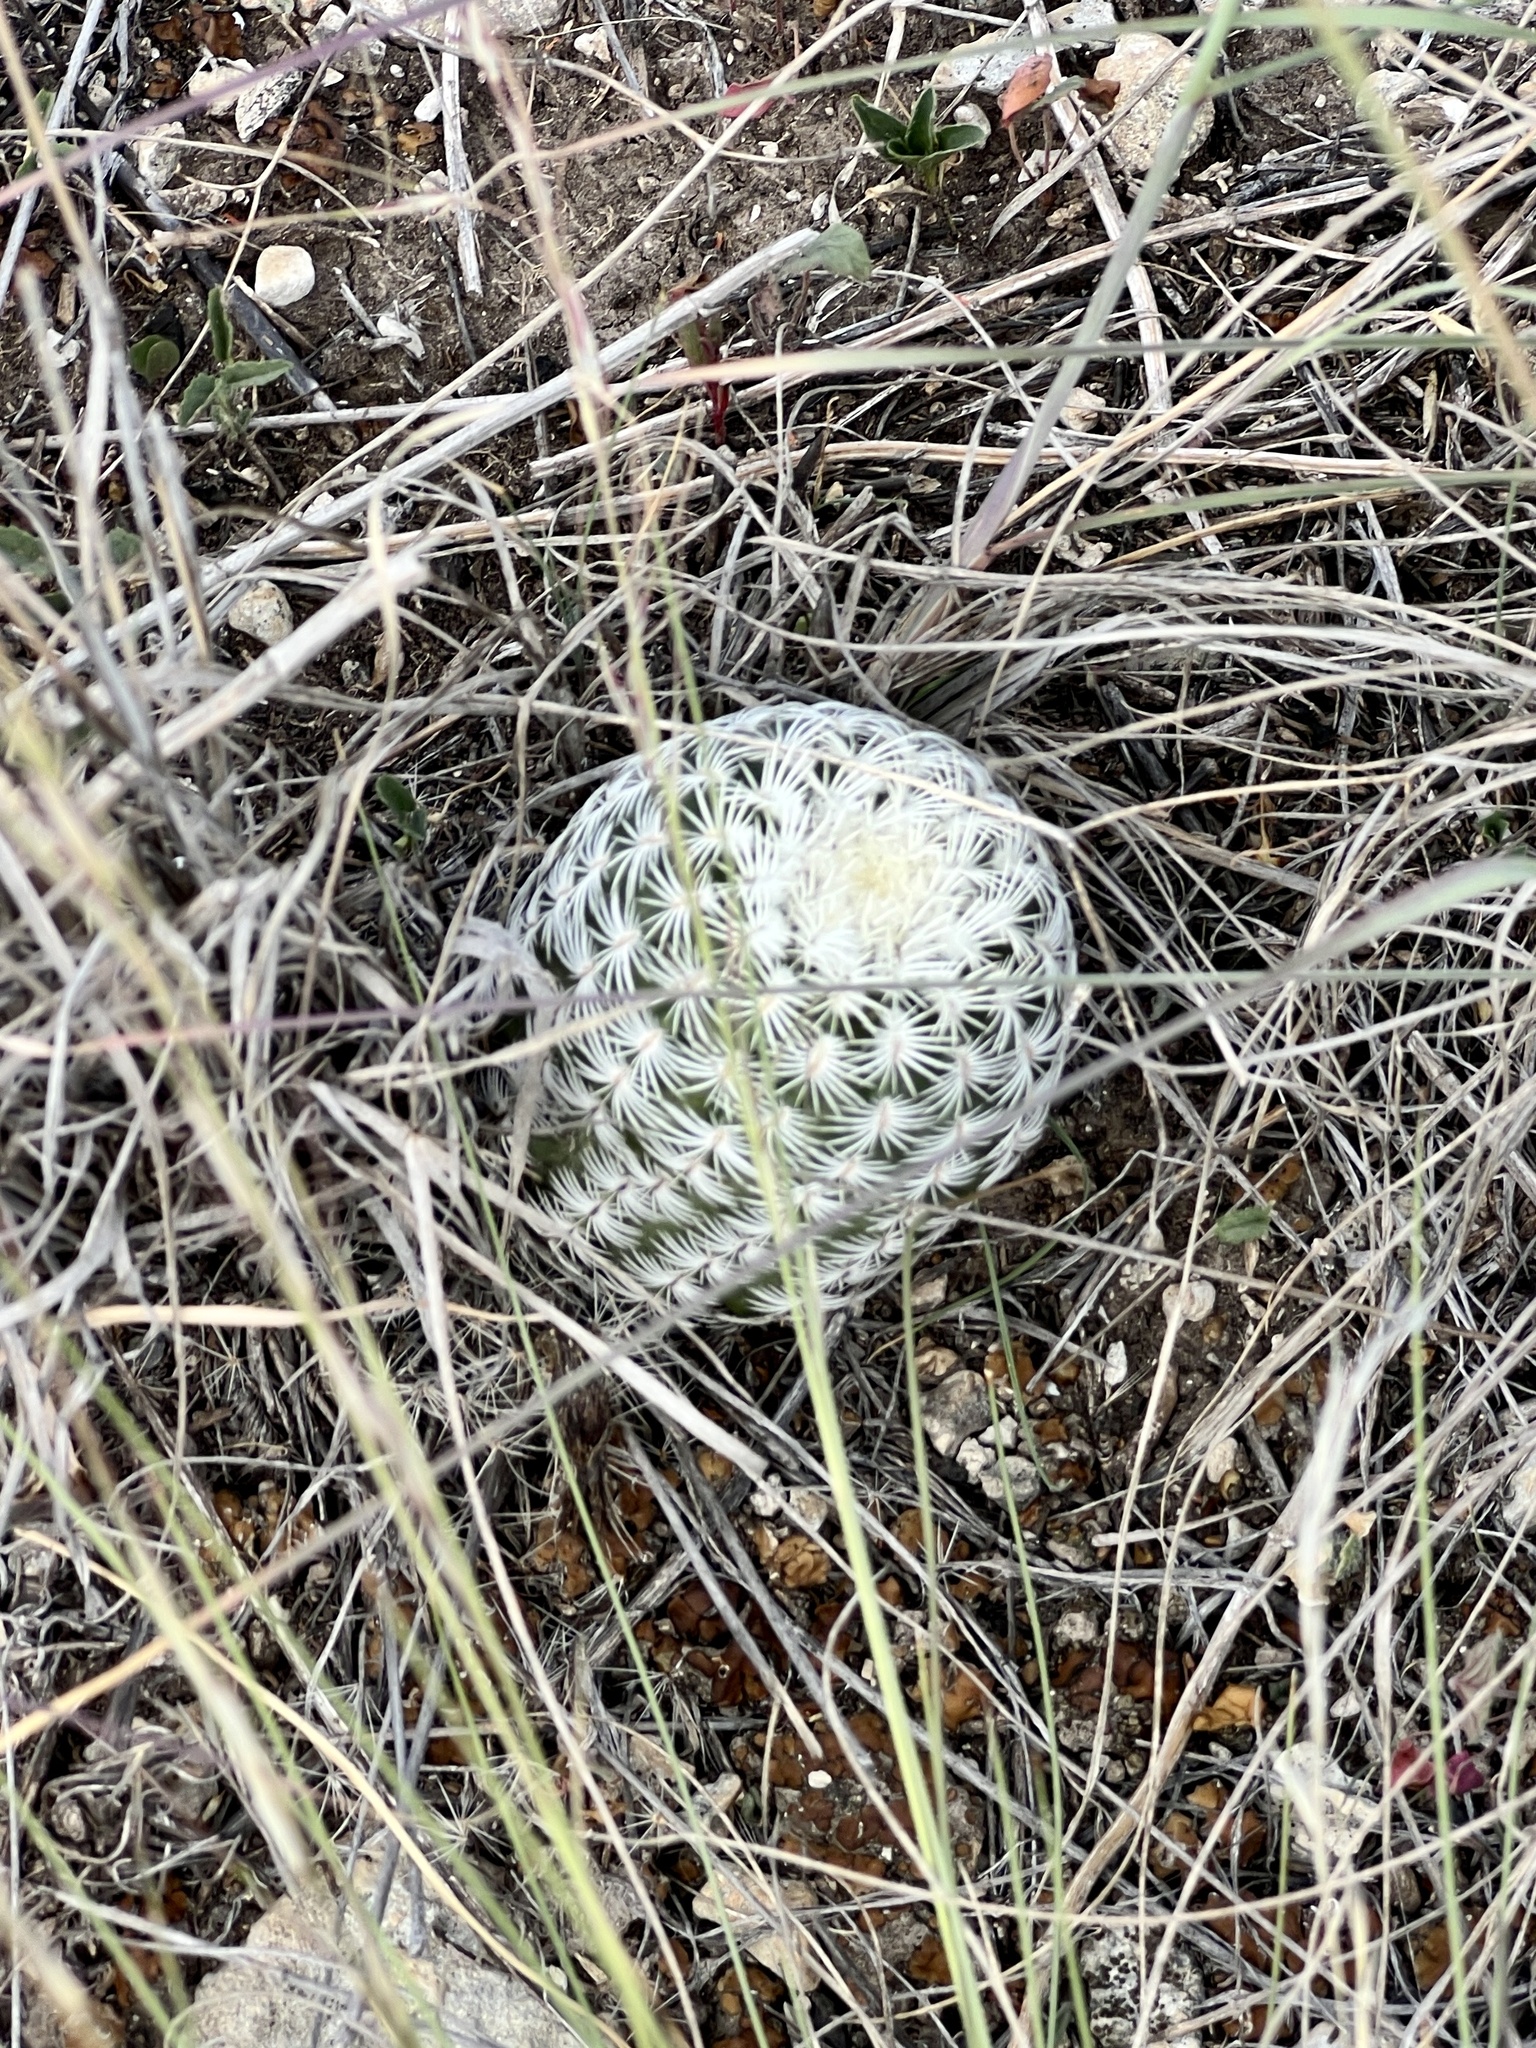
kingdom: Plantae
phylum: Tracheophyta
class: Magnoliopsida
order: Caryophyllales
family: Cactaceae
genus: Echinocereus
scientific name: Echinocereus reichenbachii
